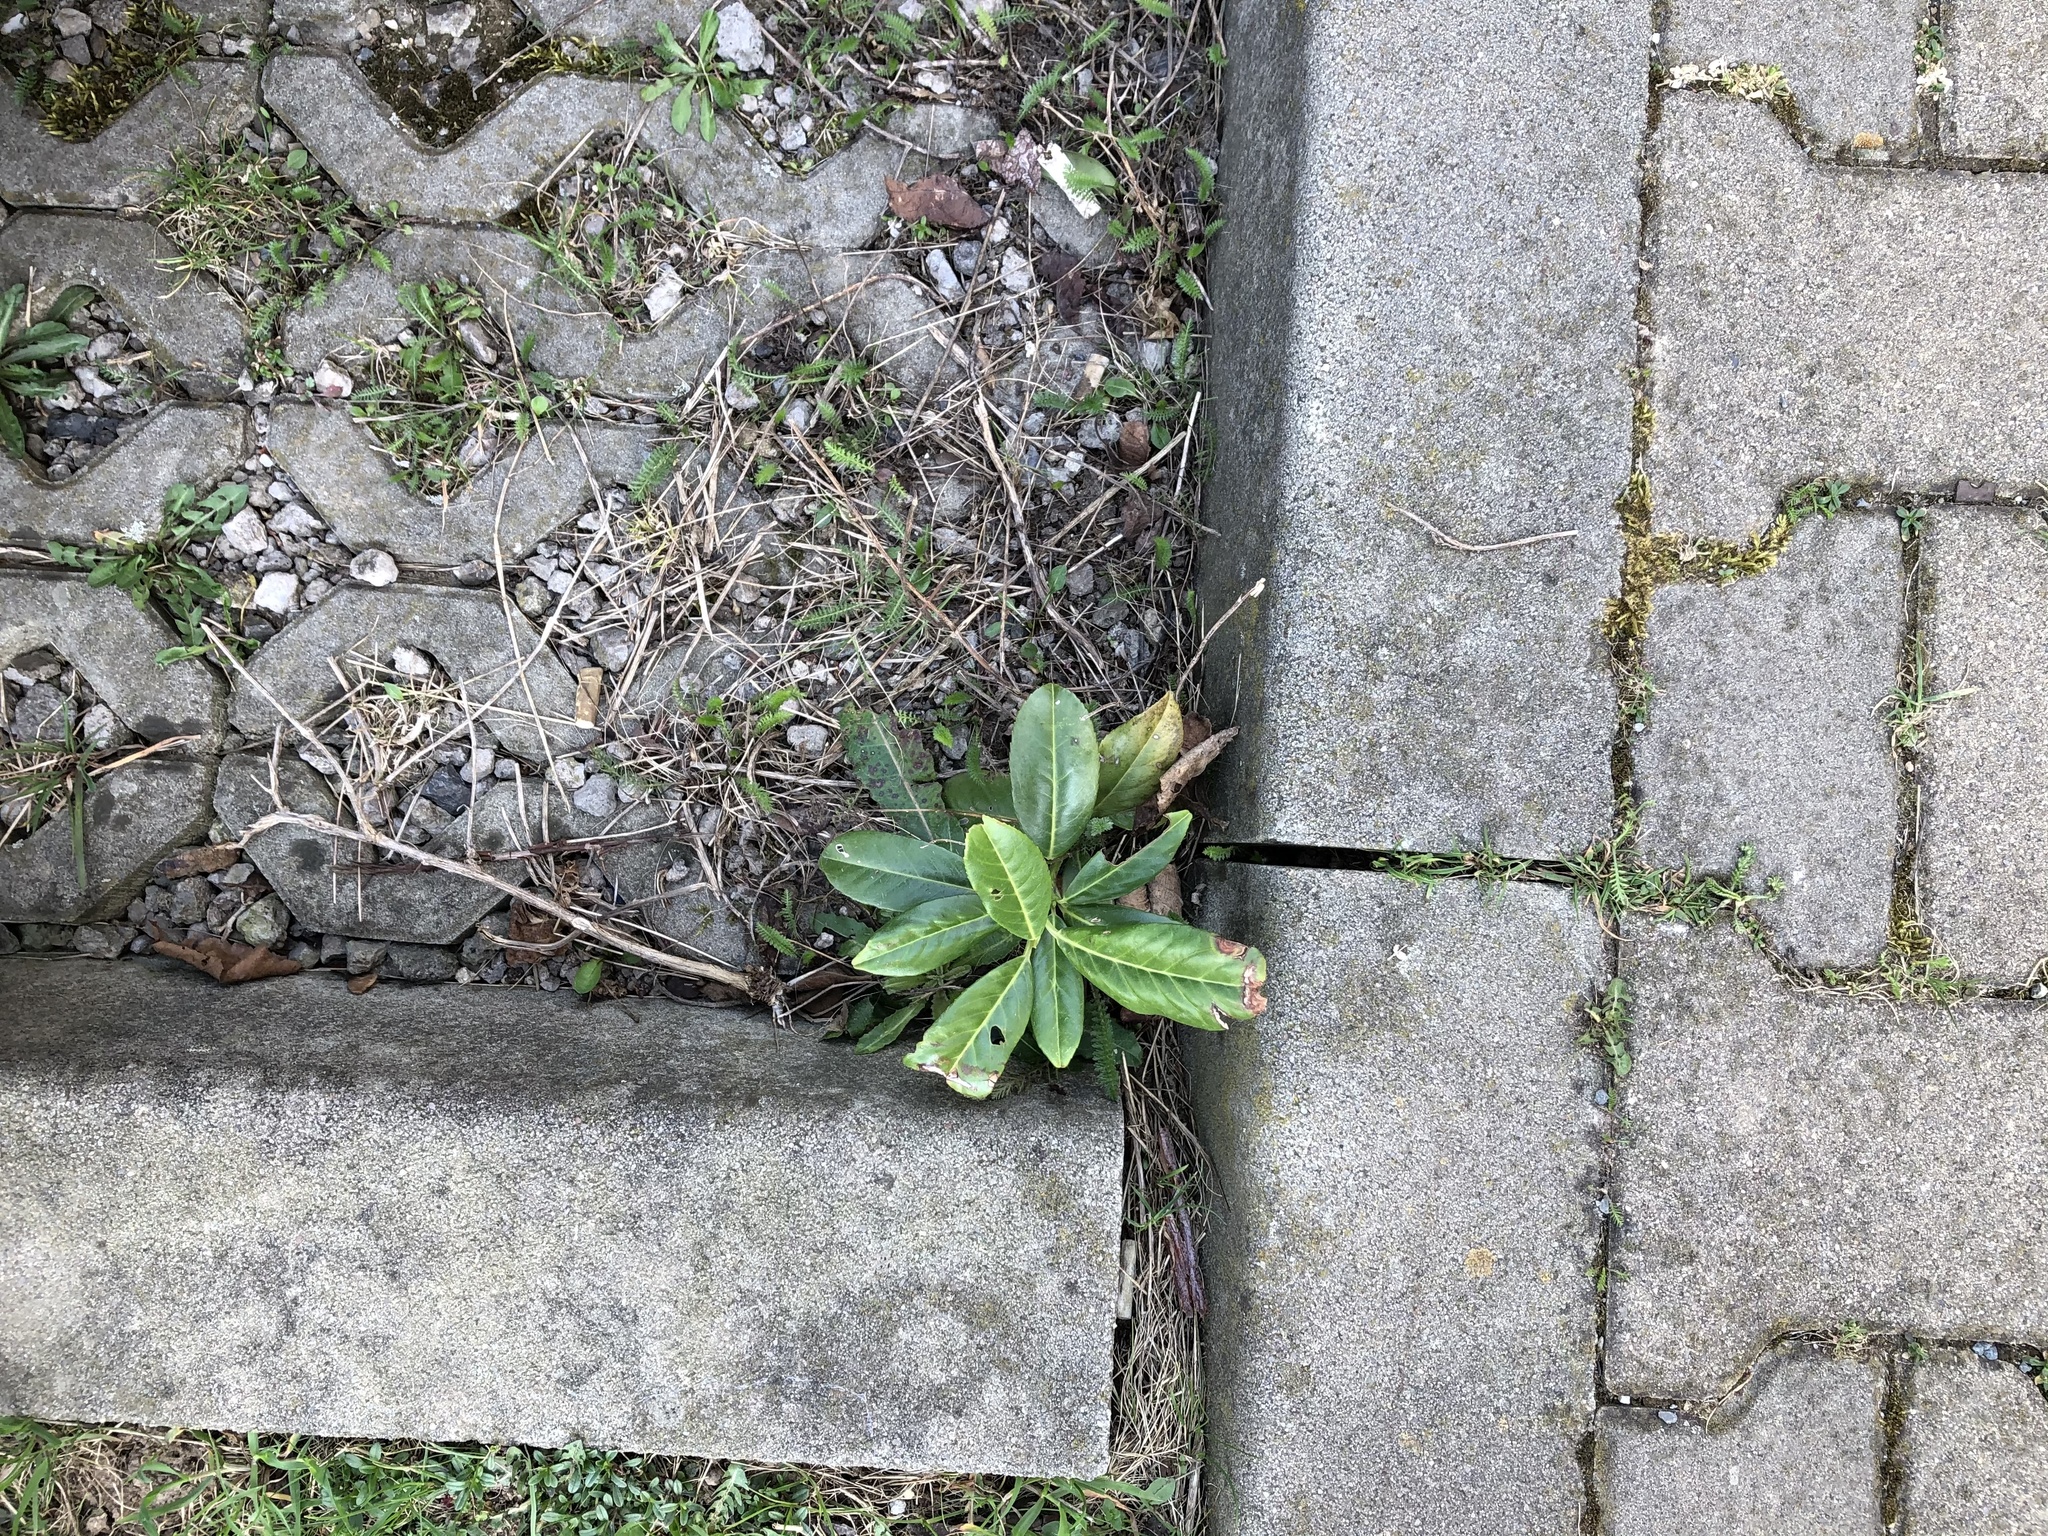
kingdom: Plantae
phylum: Tracheophyta
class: Magnoliopsida
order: Rosales
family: Rosaceae
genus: Prunus
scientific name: Prunus laurocerasus
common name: Cherry laurel
